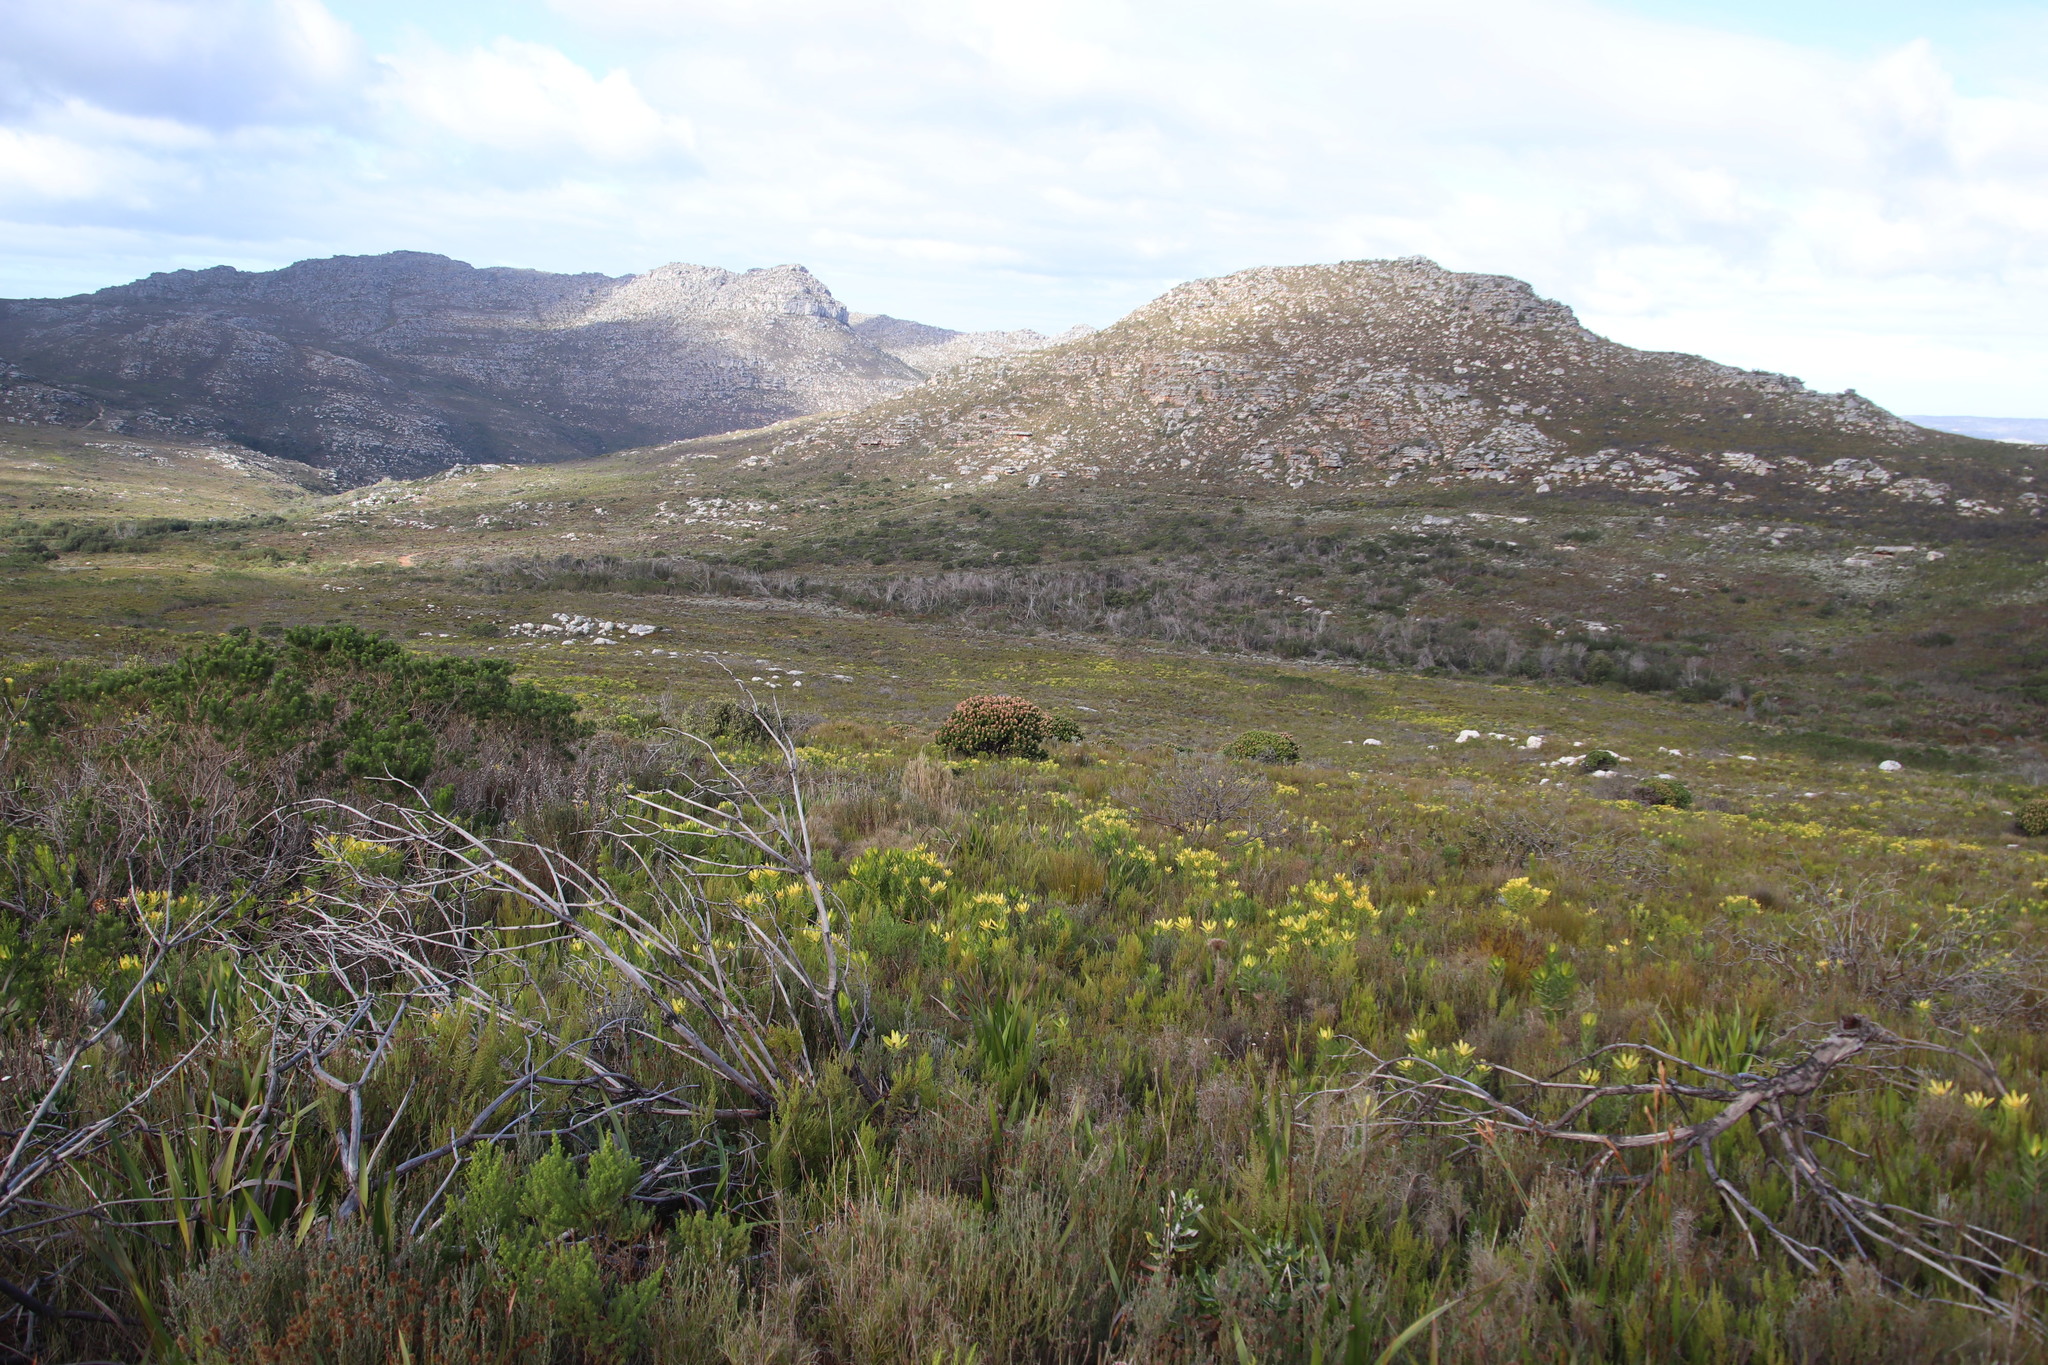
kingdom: Plantae
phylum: Tracheophyta
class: Magnoliopsida
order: Proteales
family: Proteaceae
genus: Mimetes
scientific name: Mimetes fimbriifolius
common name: Fringed bottlebrush
